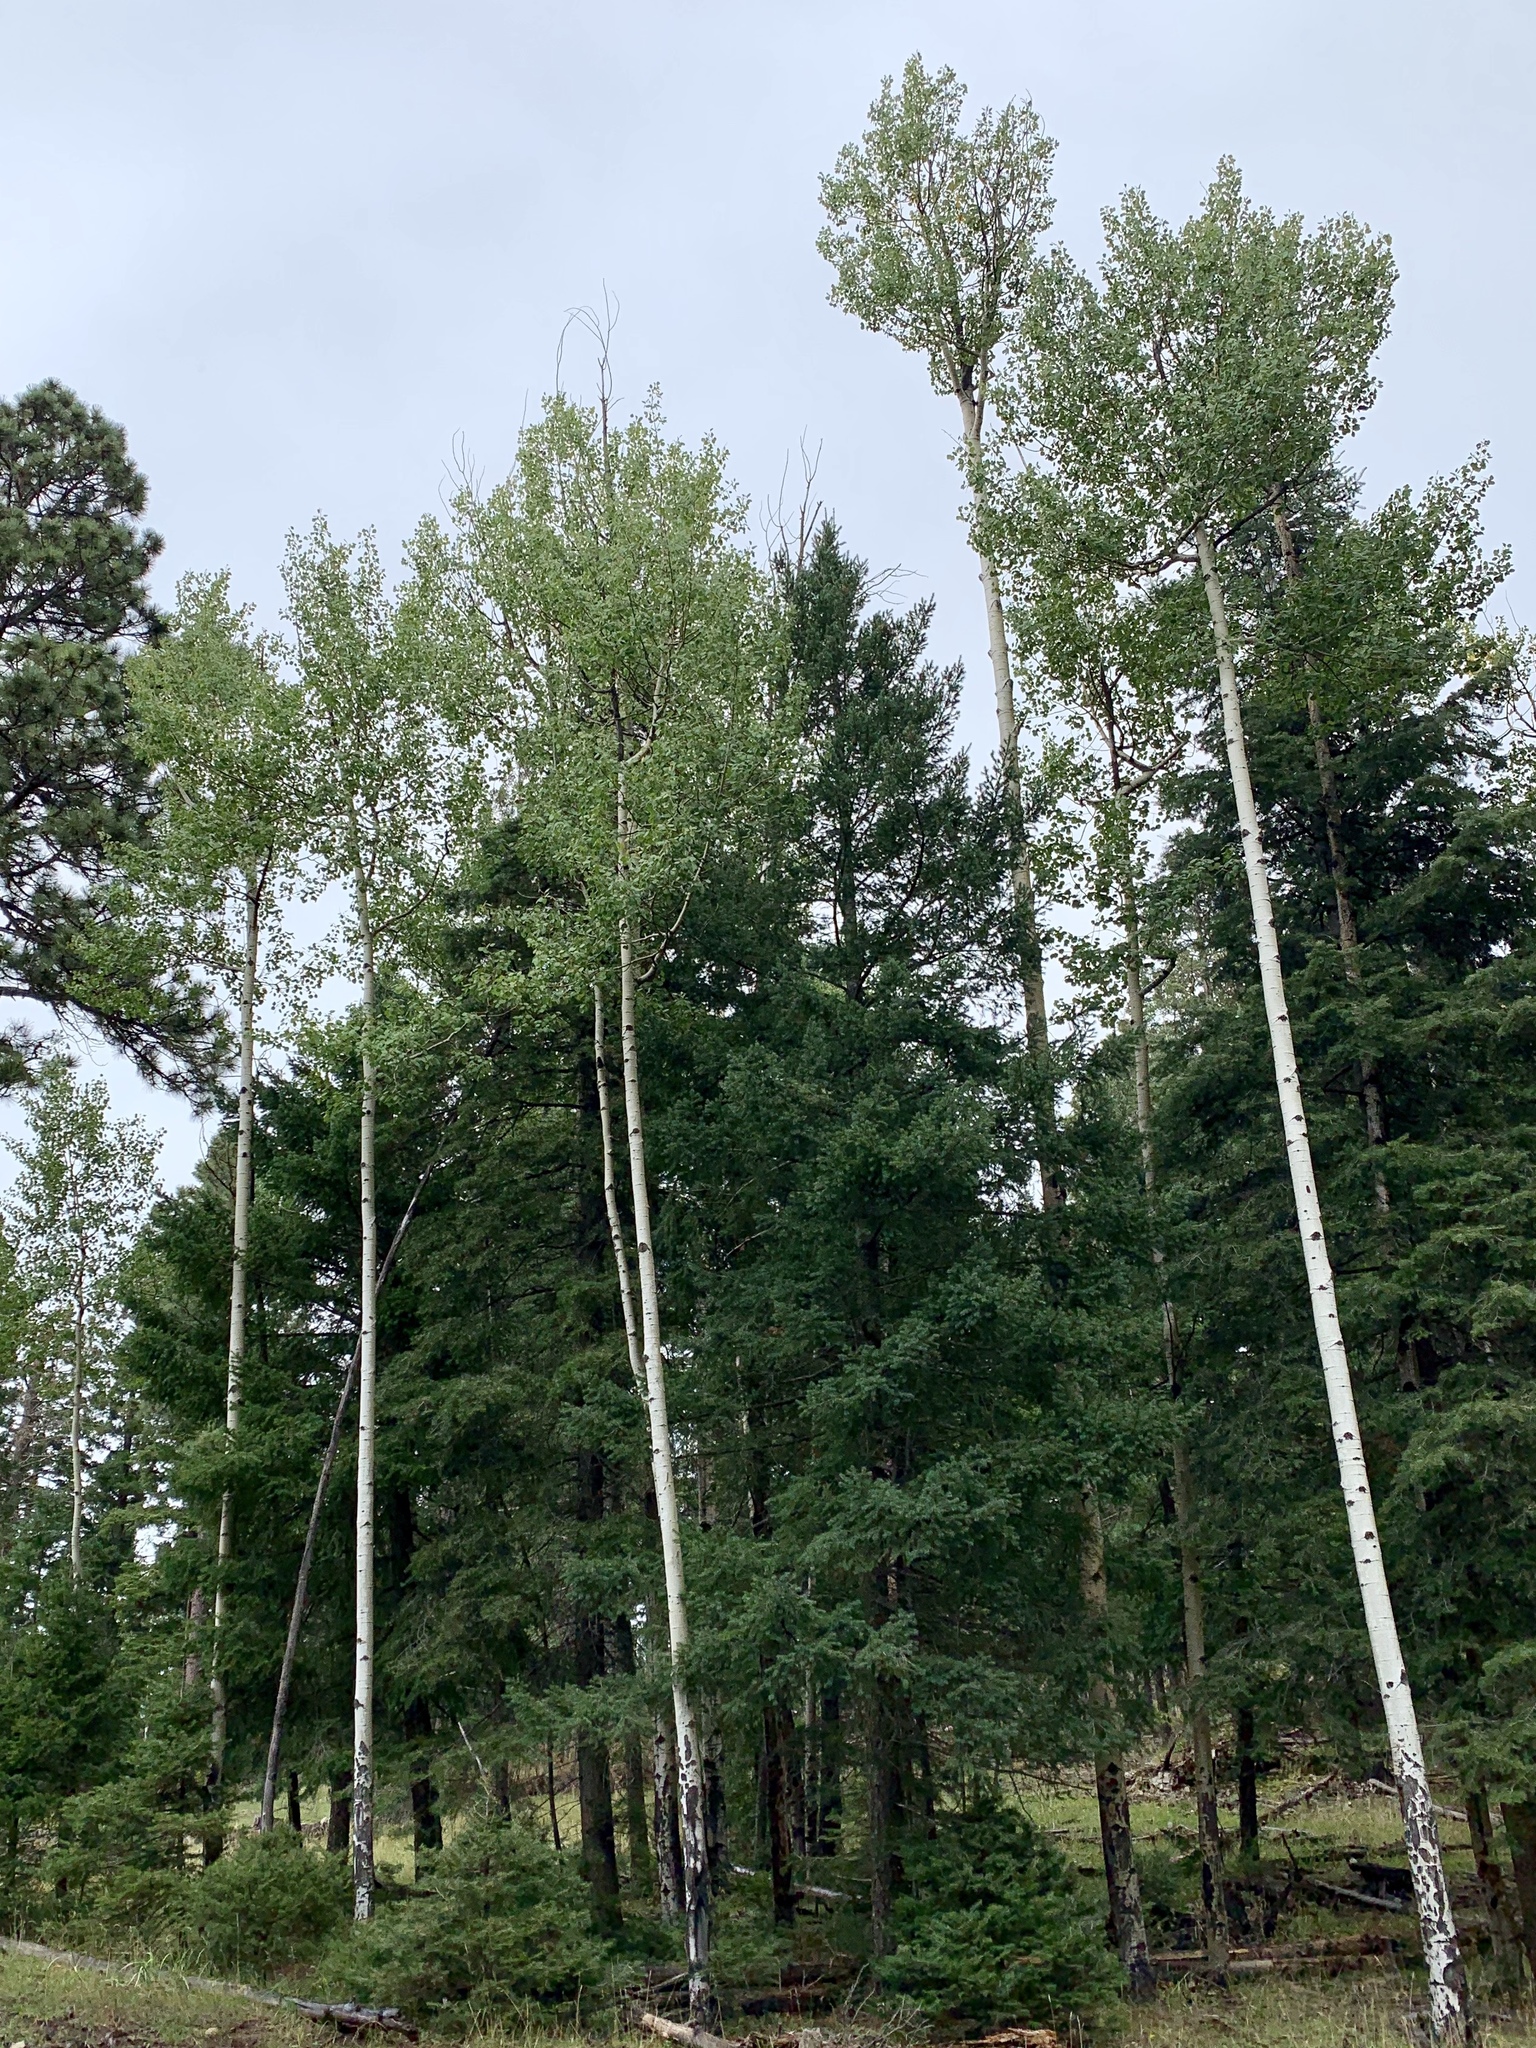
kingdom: Plantae
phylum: Tracheophyta
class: Magnoliopsida
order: Malpighiales
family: Salicaceae
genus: Populus
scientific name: Populus tremuloides
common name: Quaking aspen
